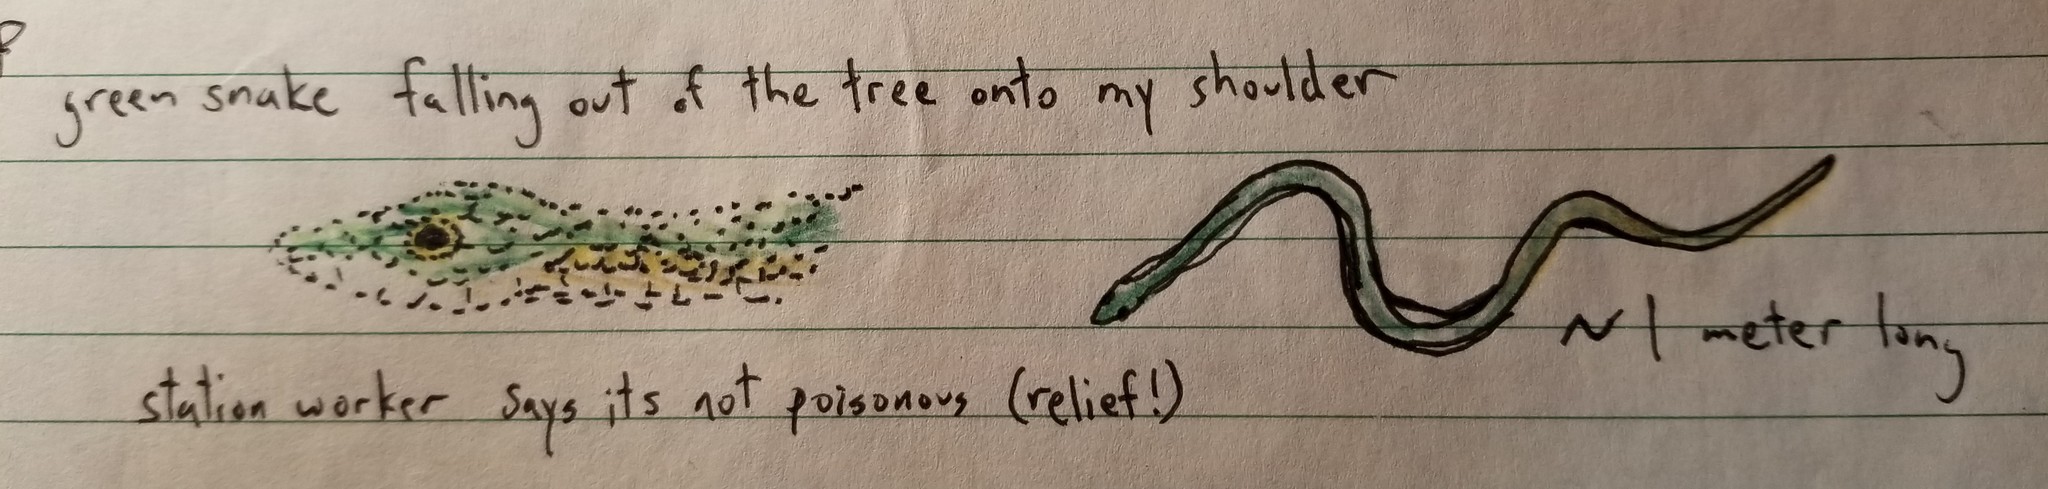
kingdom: Animalia
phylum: Chordata
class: Squamata
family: Colubridae
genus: Leptophis
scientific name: Leptophis ahaetulla
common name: Parrot snake
